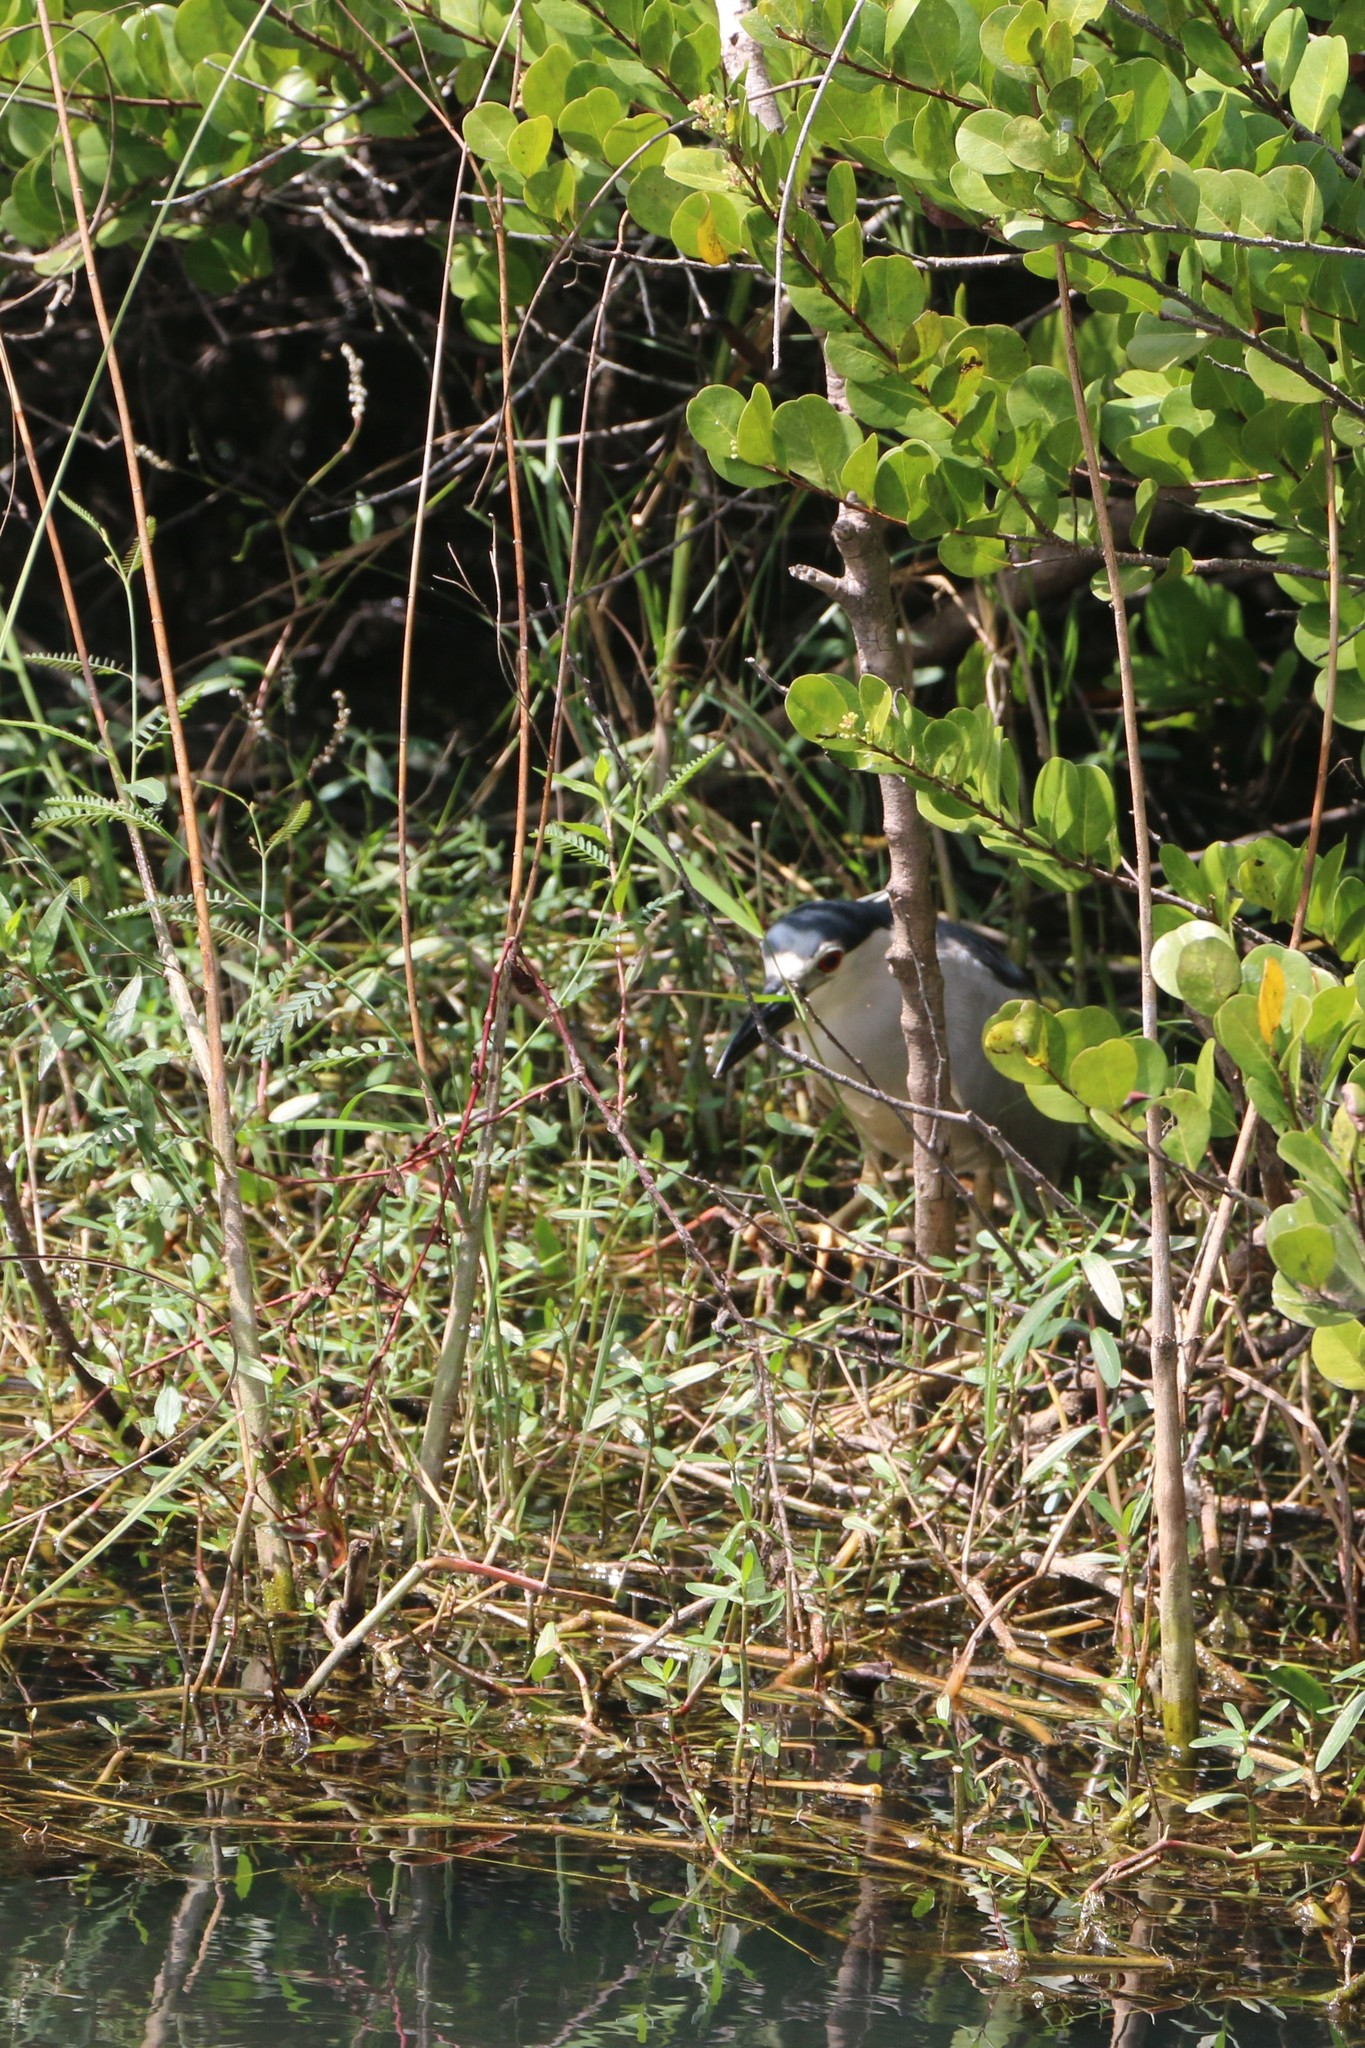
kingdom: Animalia
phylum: Chordata
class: Aves
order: Pelecaniformes
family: Ardeidae
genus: Nycticorax
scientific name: Nycticorax nycticorax
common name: Black-crowned night heron
